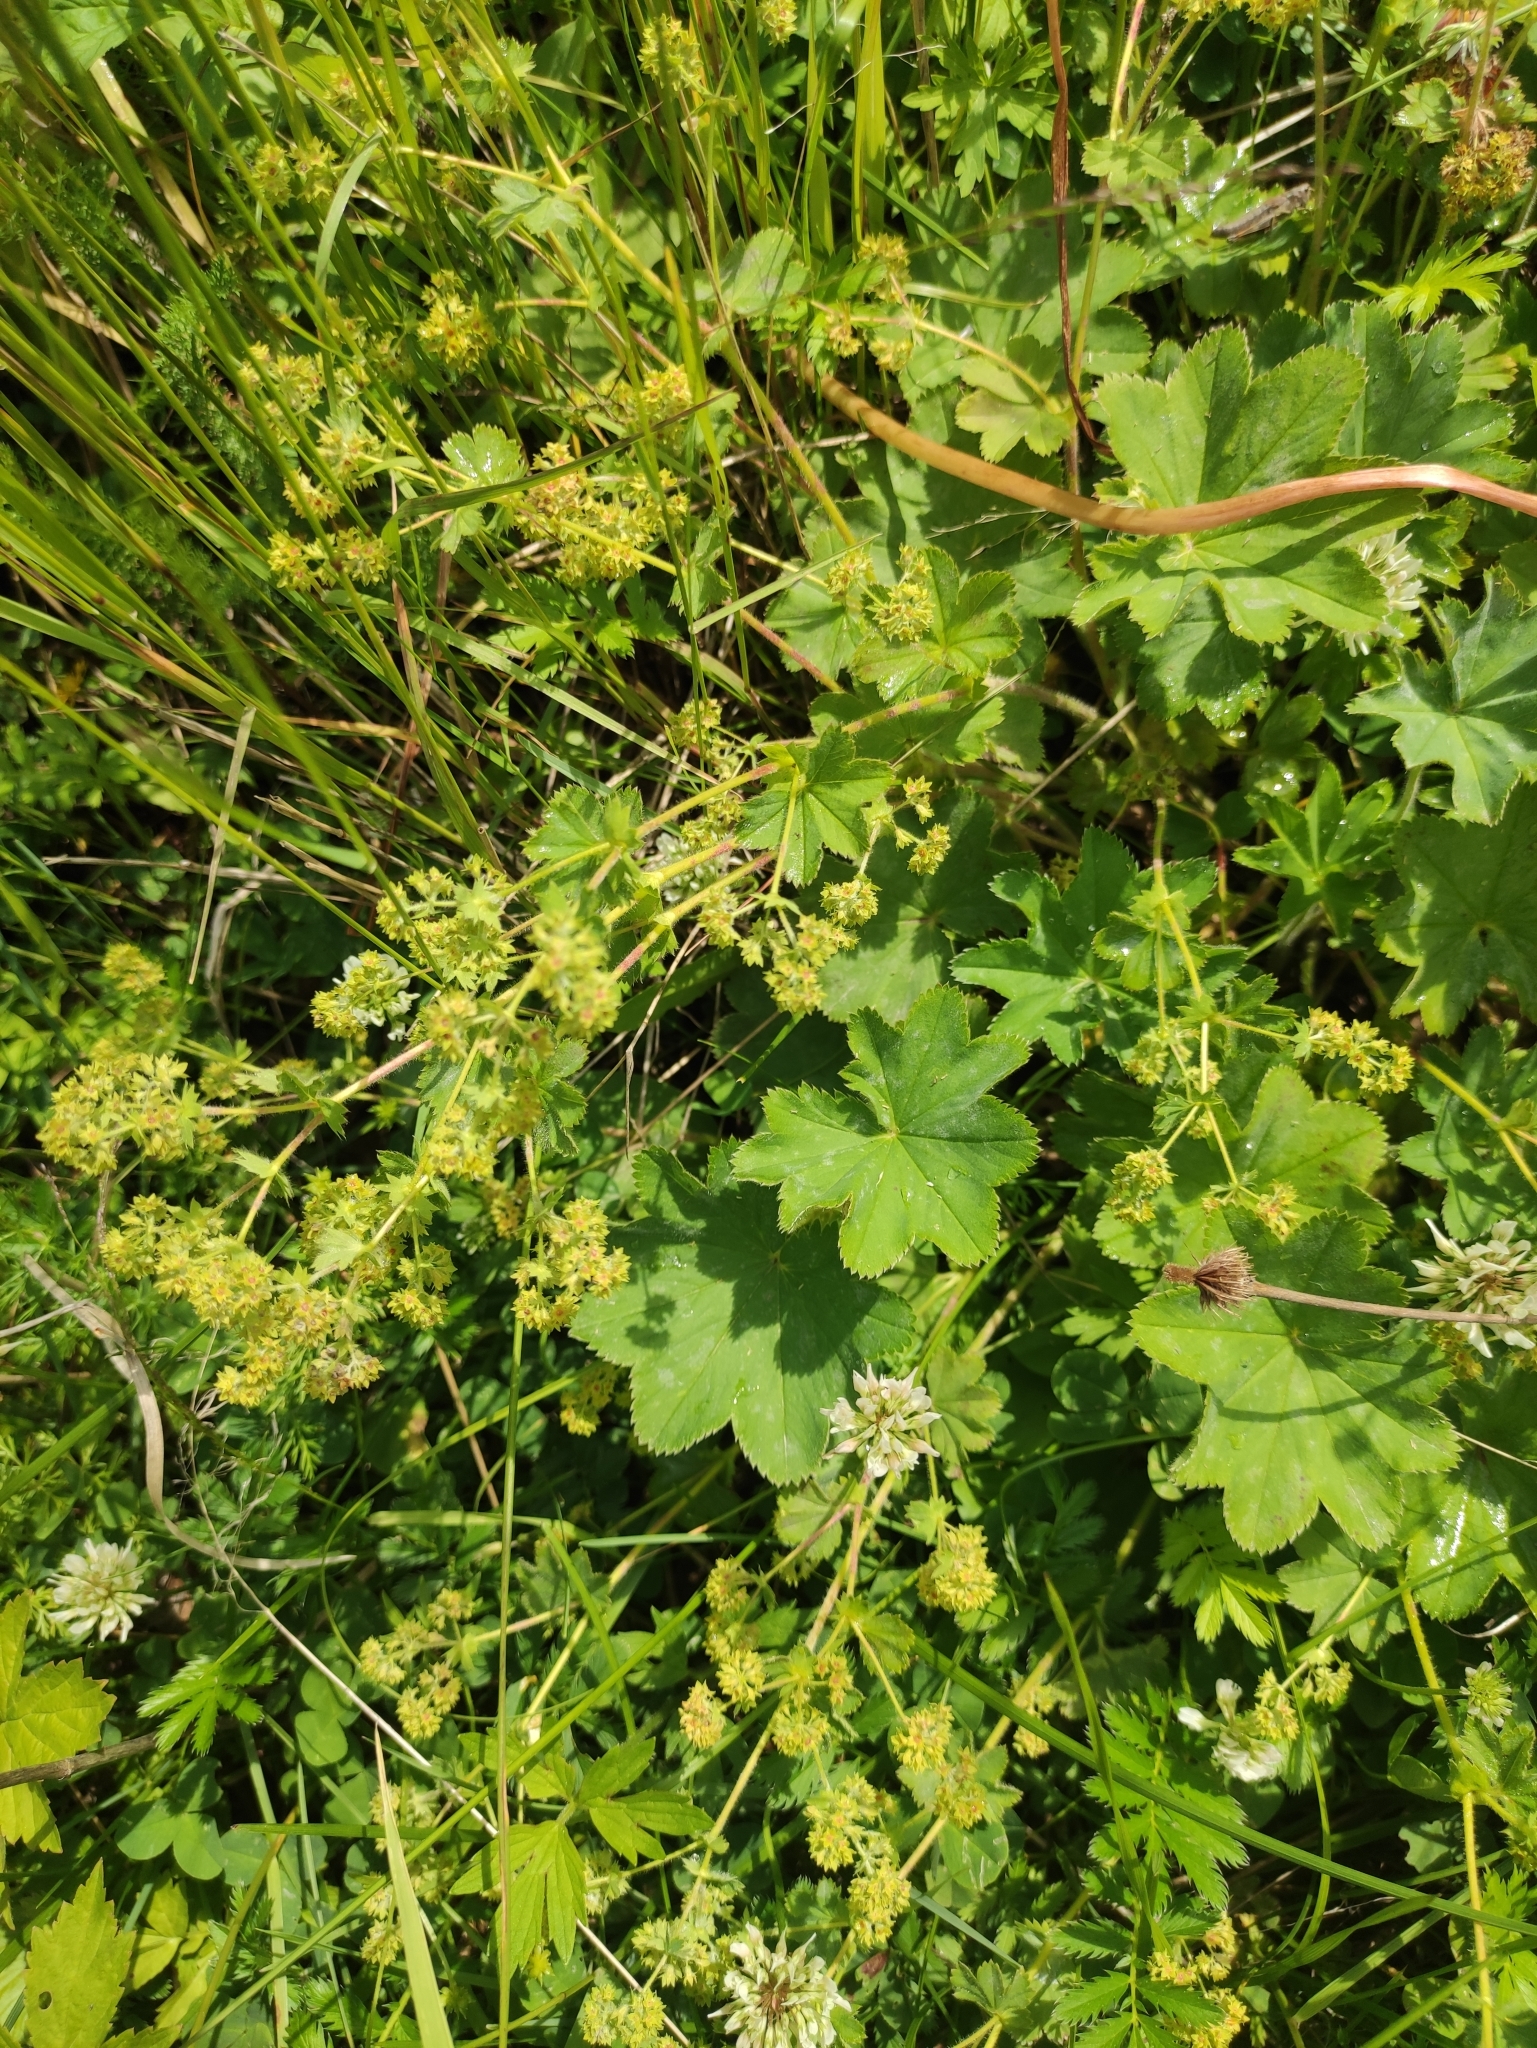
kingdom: Plantae
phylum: Tracheophyta
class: Magnoliopsida
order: Rosales
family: Rosaceae
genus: Alchemilla
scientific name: Alchemilla bungei
